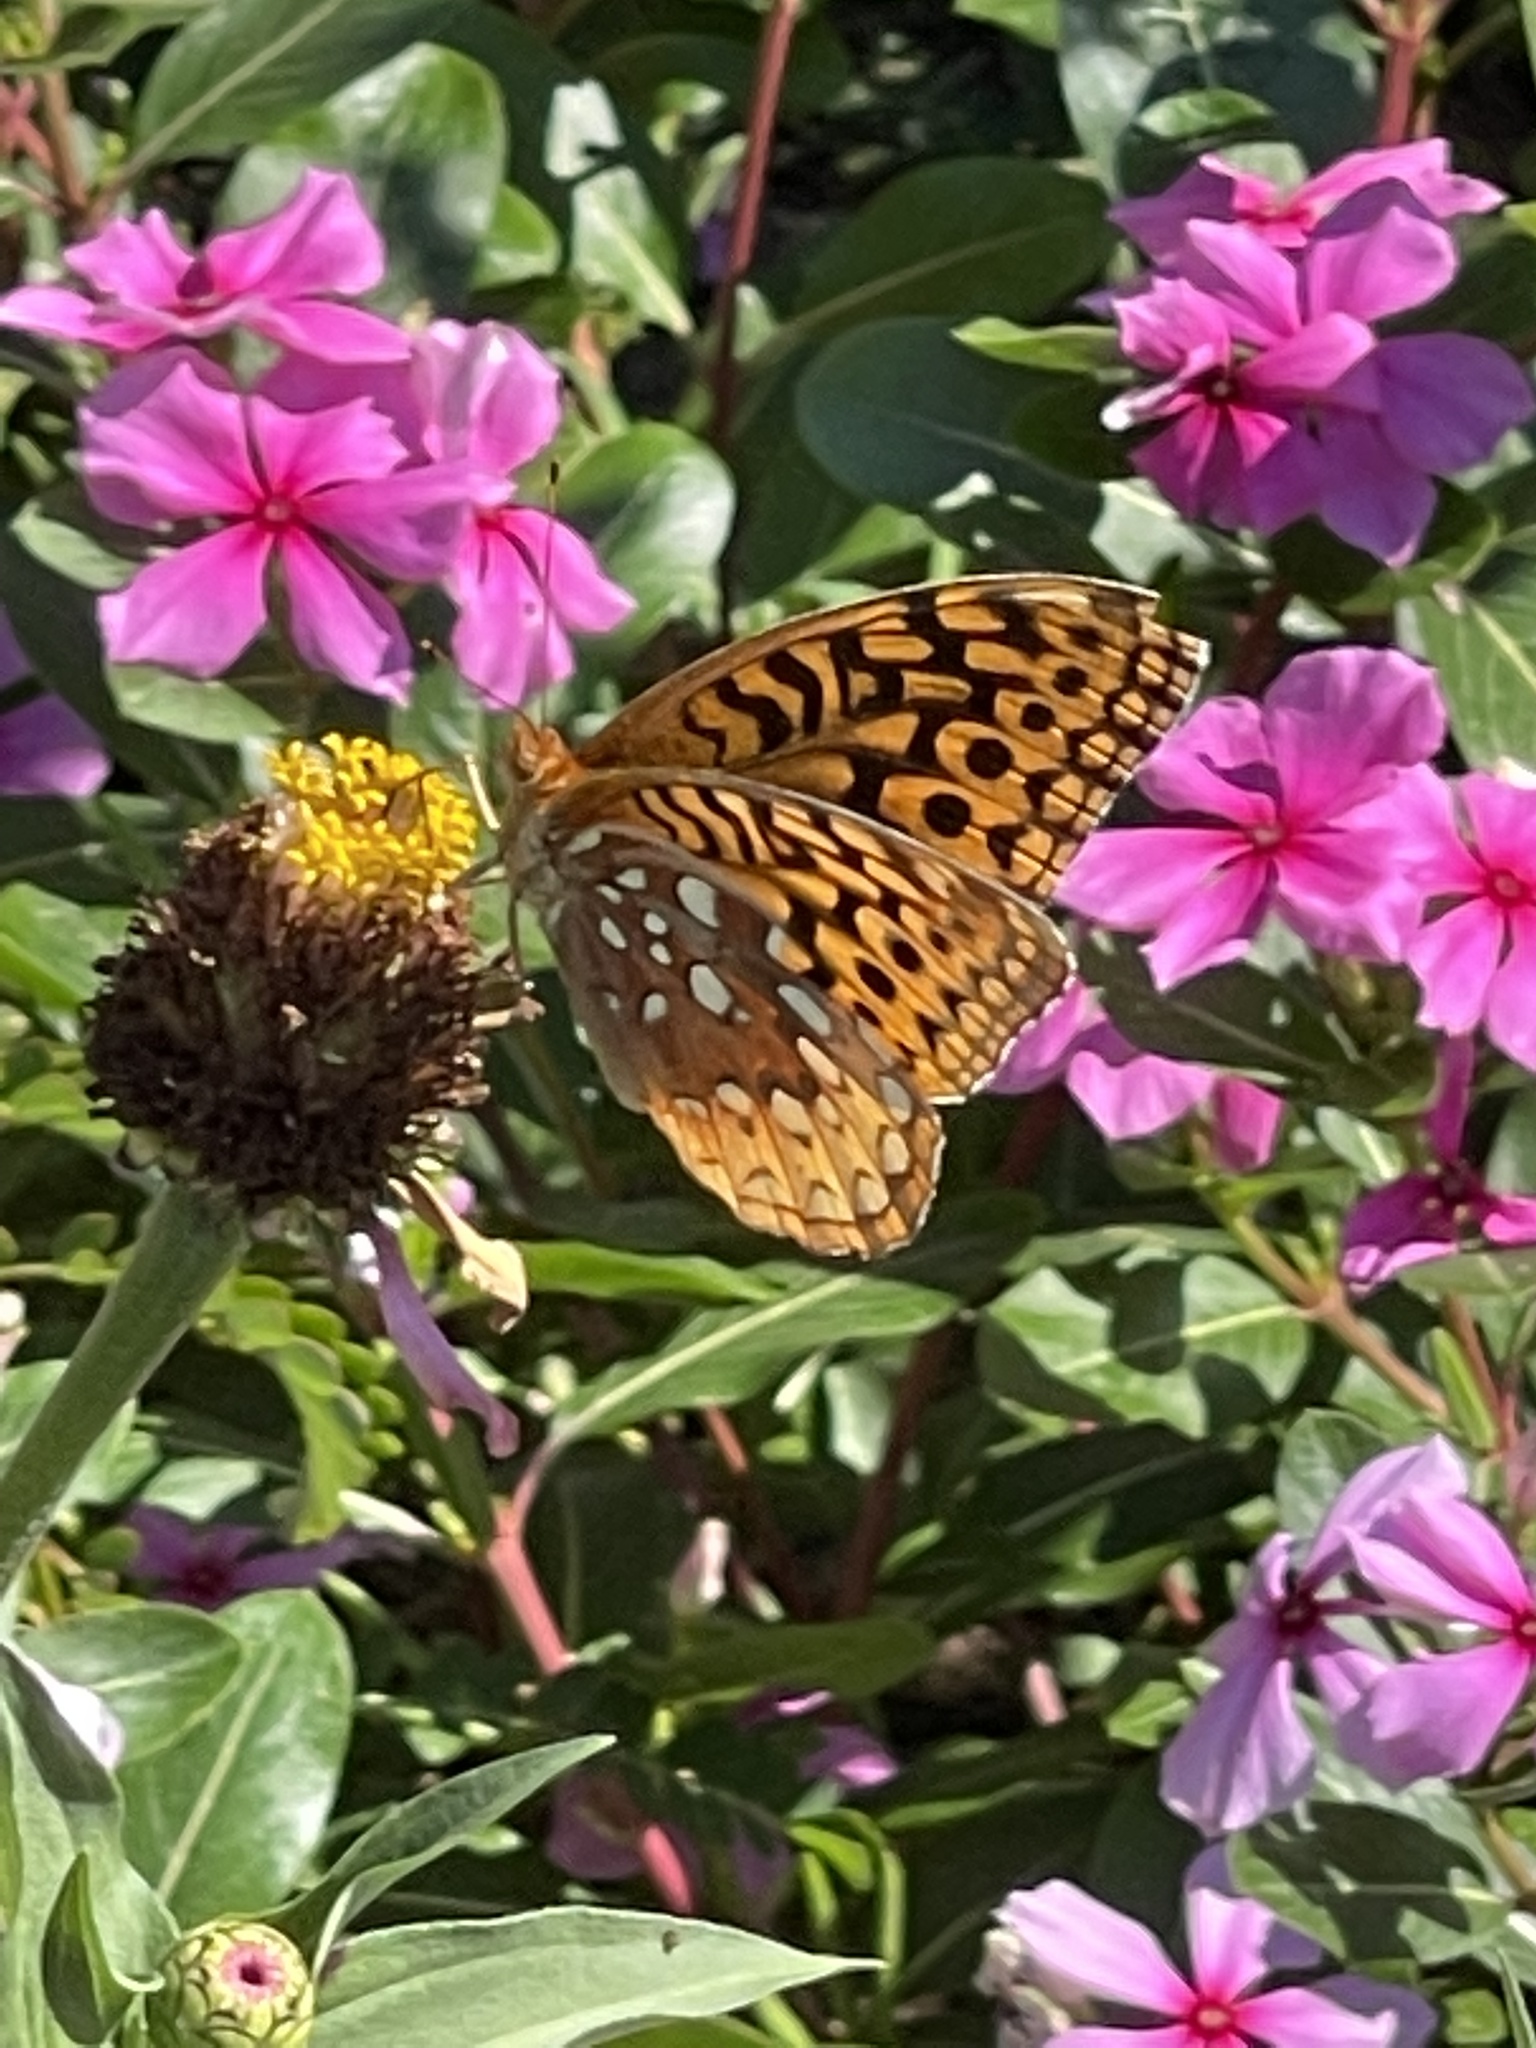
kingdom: Animalia
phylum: Arthropoda
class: Insecta
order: Lepidoptera
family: Nymphalidae
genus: Speyeria
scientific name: Speyeria cybele
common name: Great spangled fritillary
